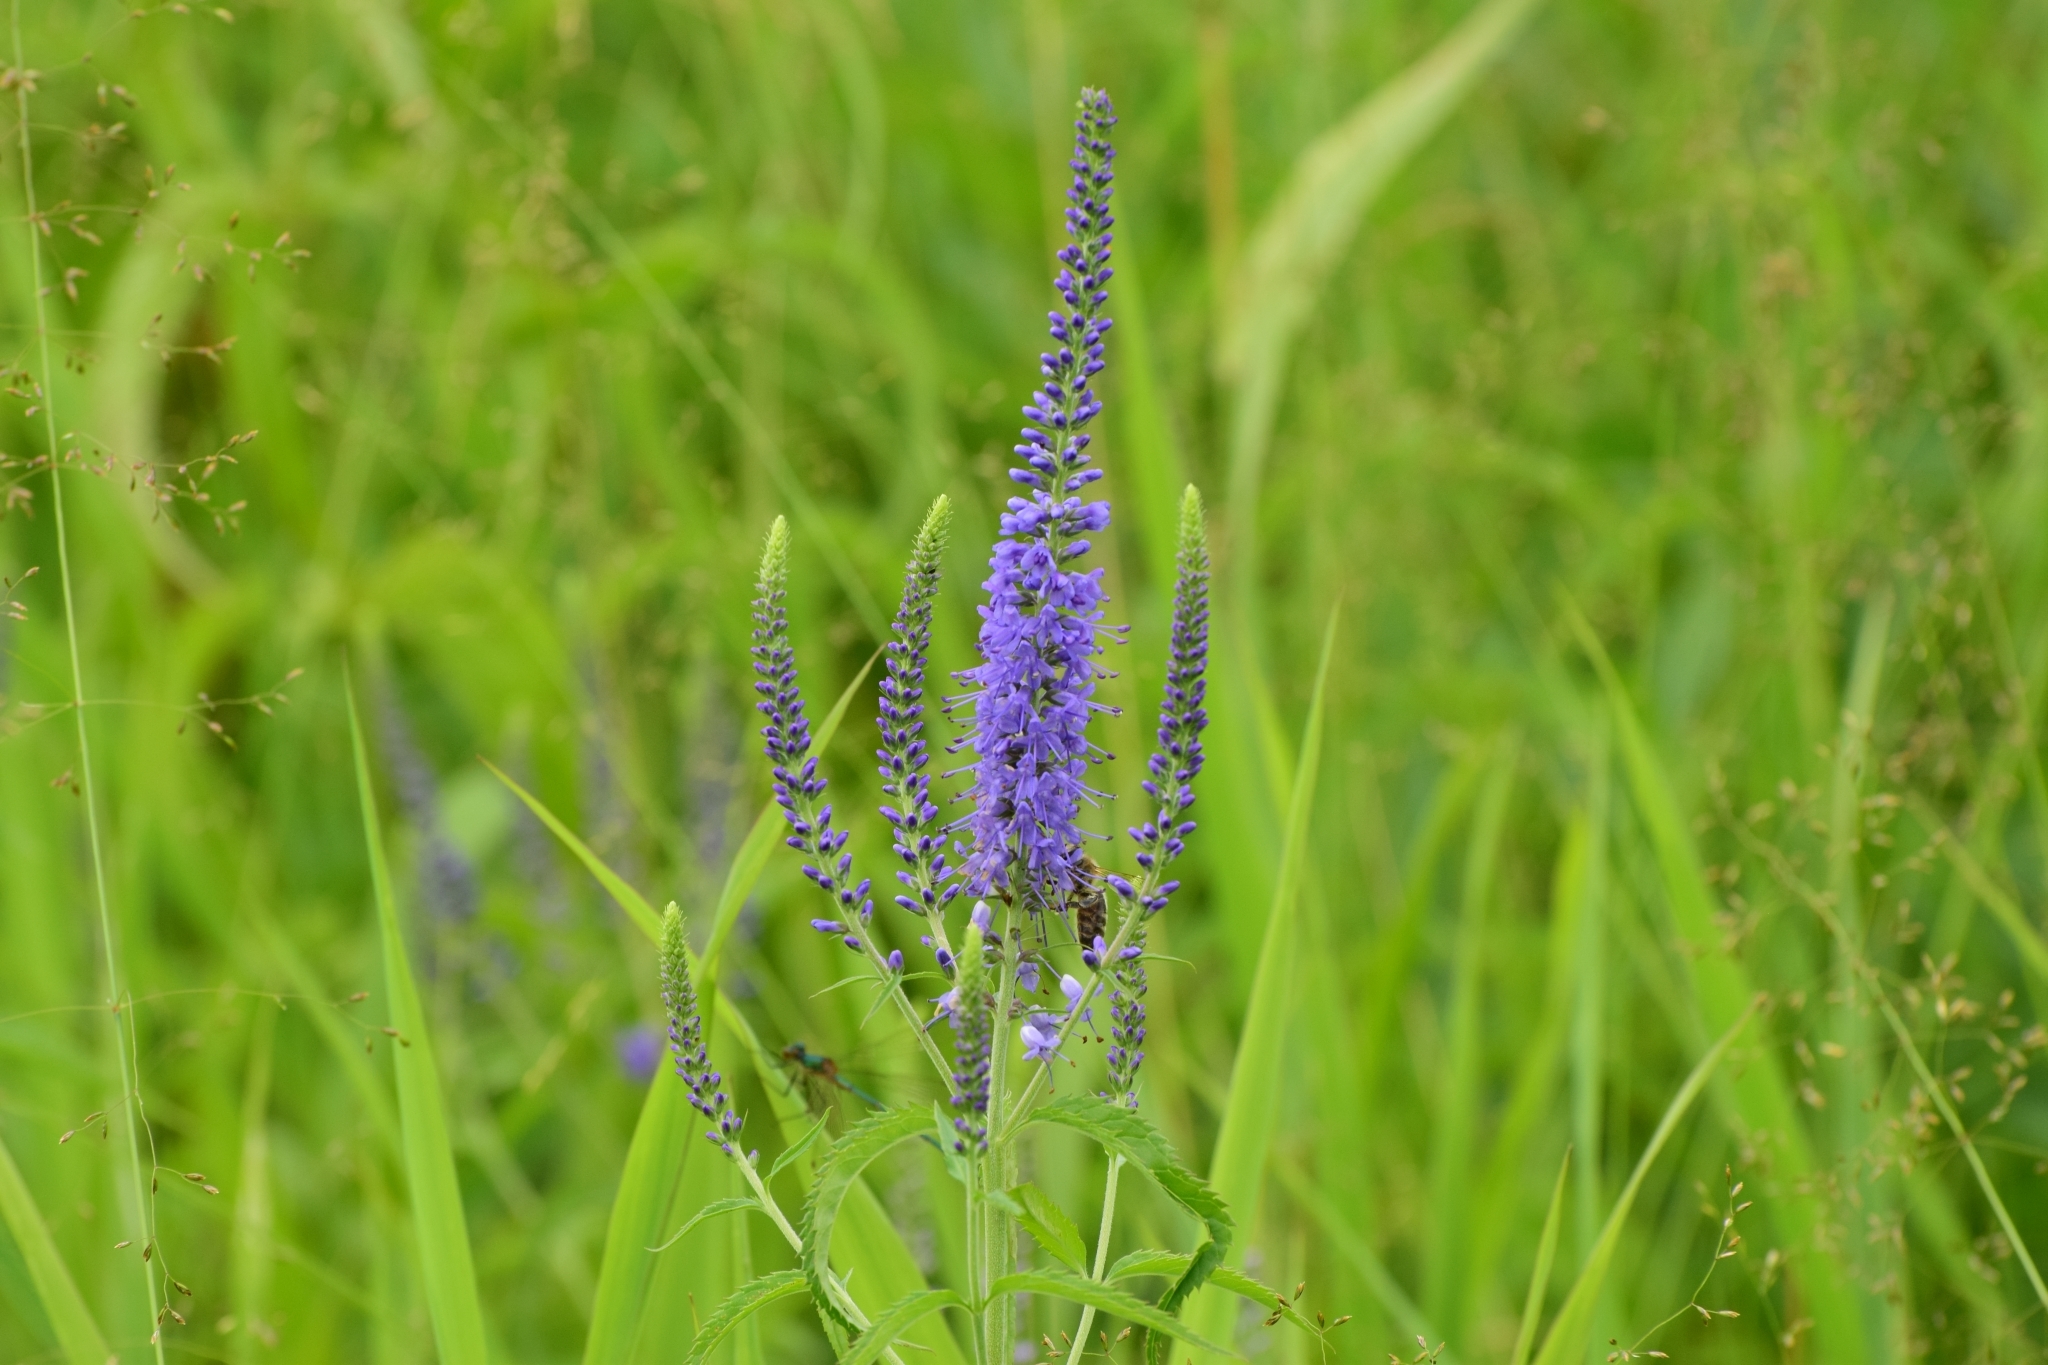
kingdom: Plantae
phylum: Tracheophyta
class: Magnoliopsida
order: Lamiales
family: Plantaginaceae
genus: Veronica
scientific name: Veronica longifolia
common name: Garden speedwell
